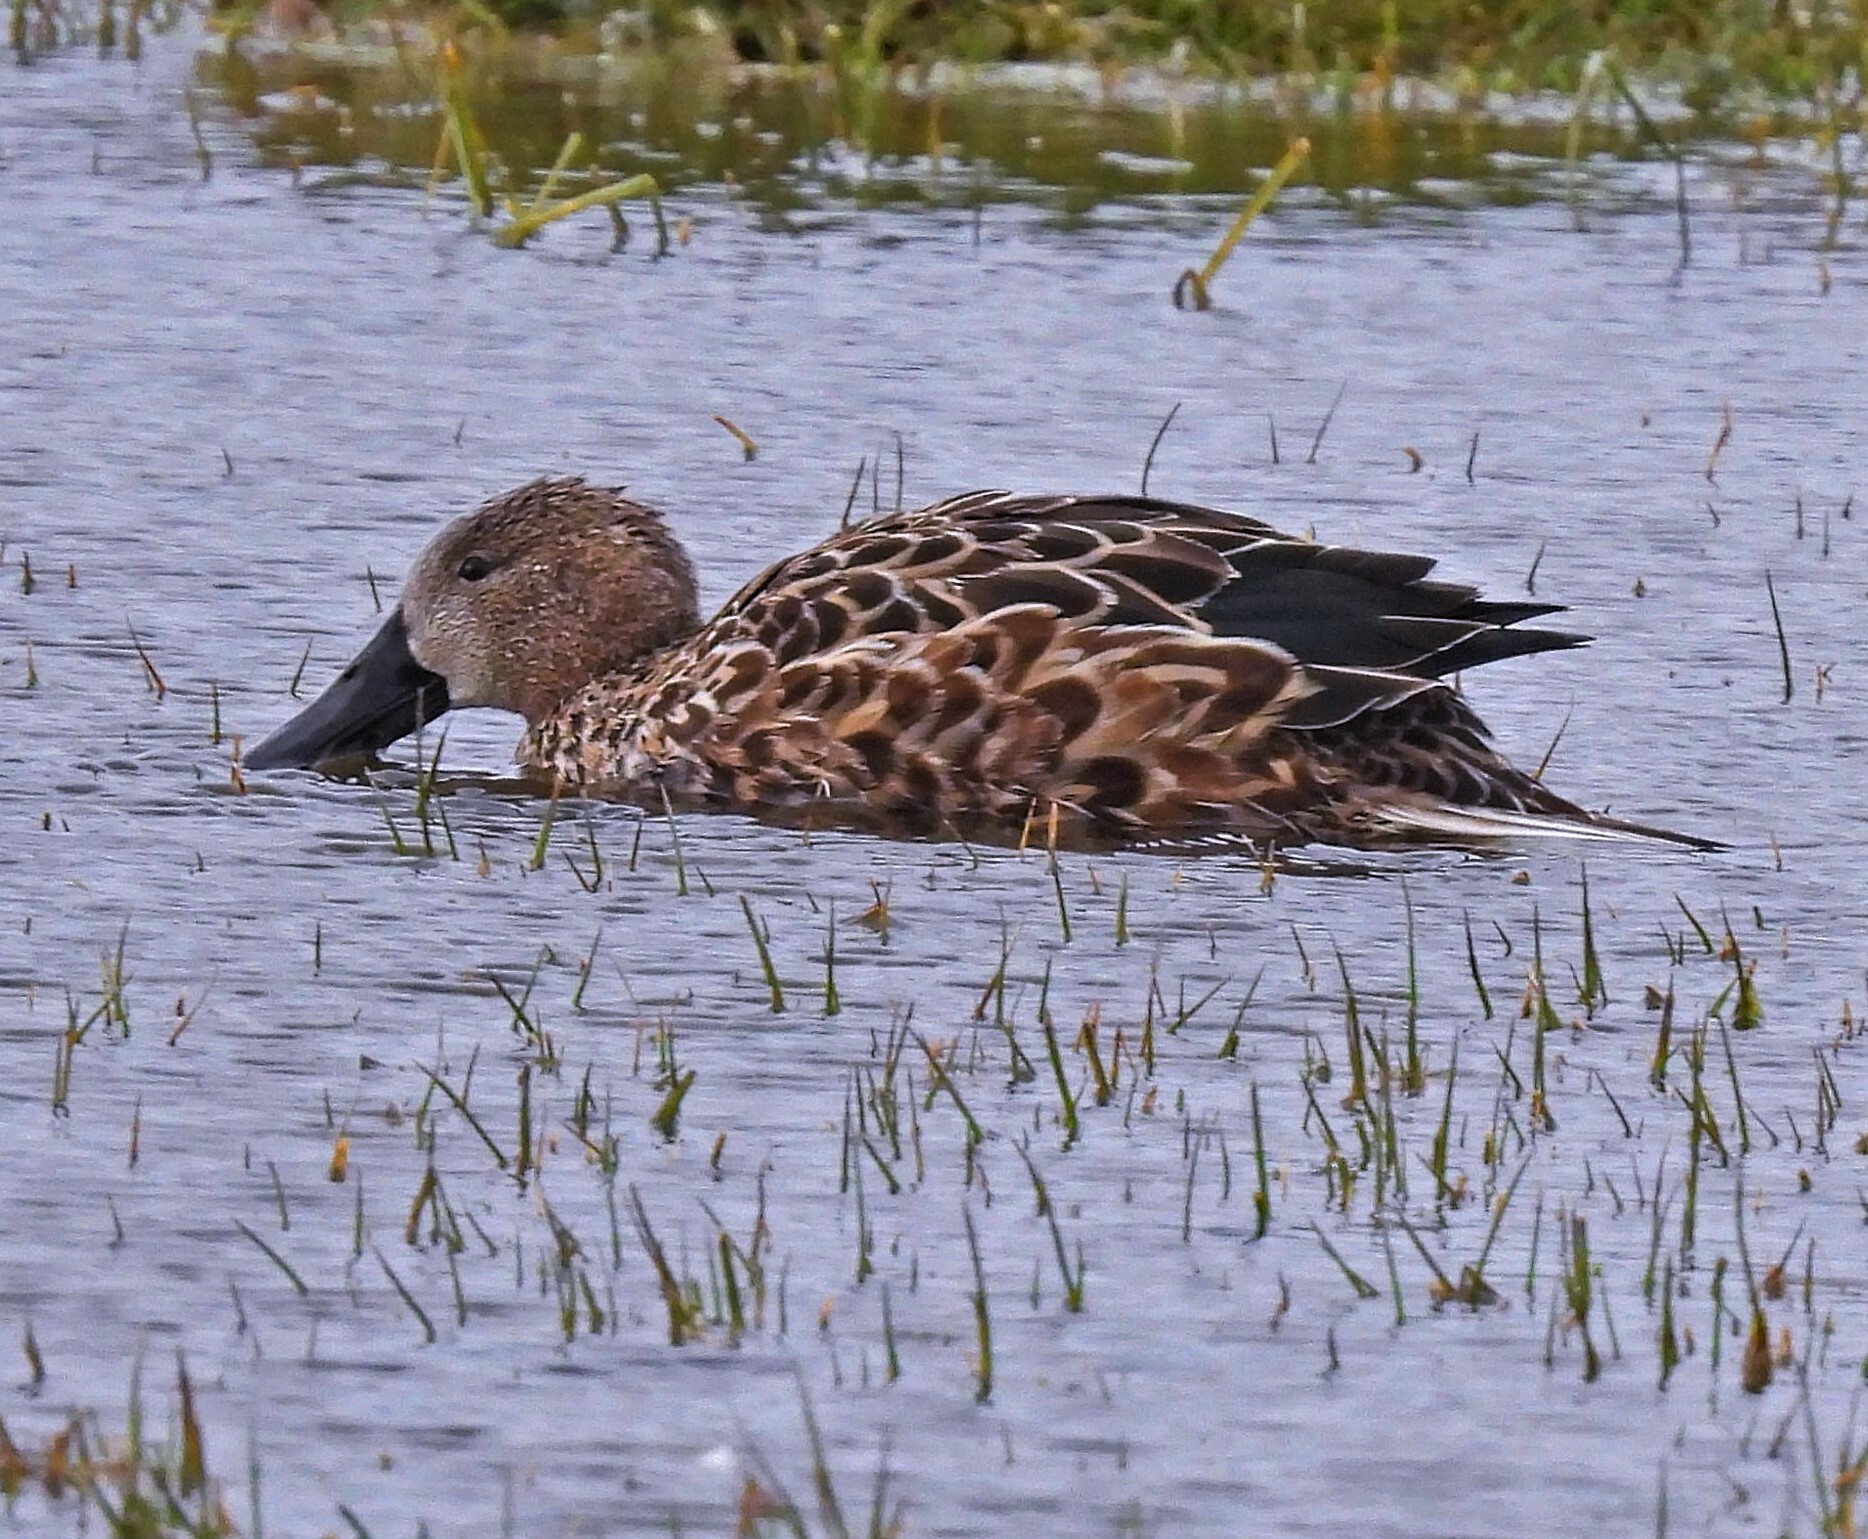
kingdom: Animalia
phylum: Chordata
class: Aves
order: Anseriformes
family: Anatidae
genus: Spatula
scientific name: Spatula platalea
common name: Red shoveler
